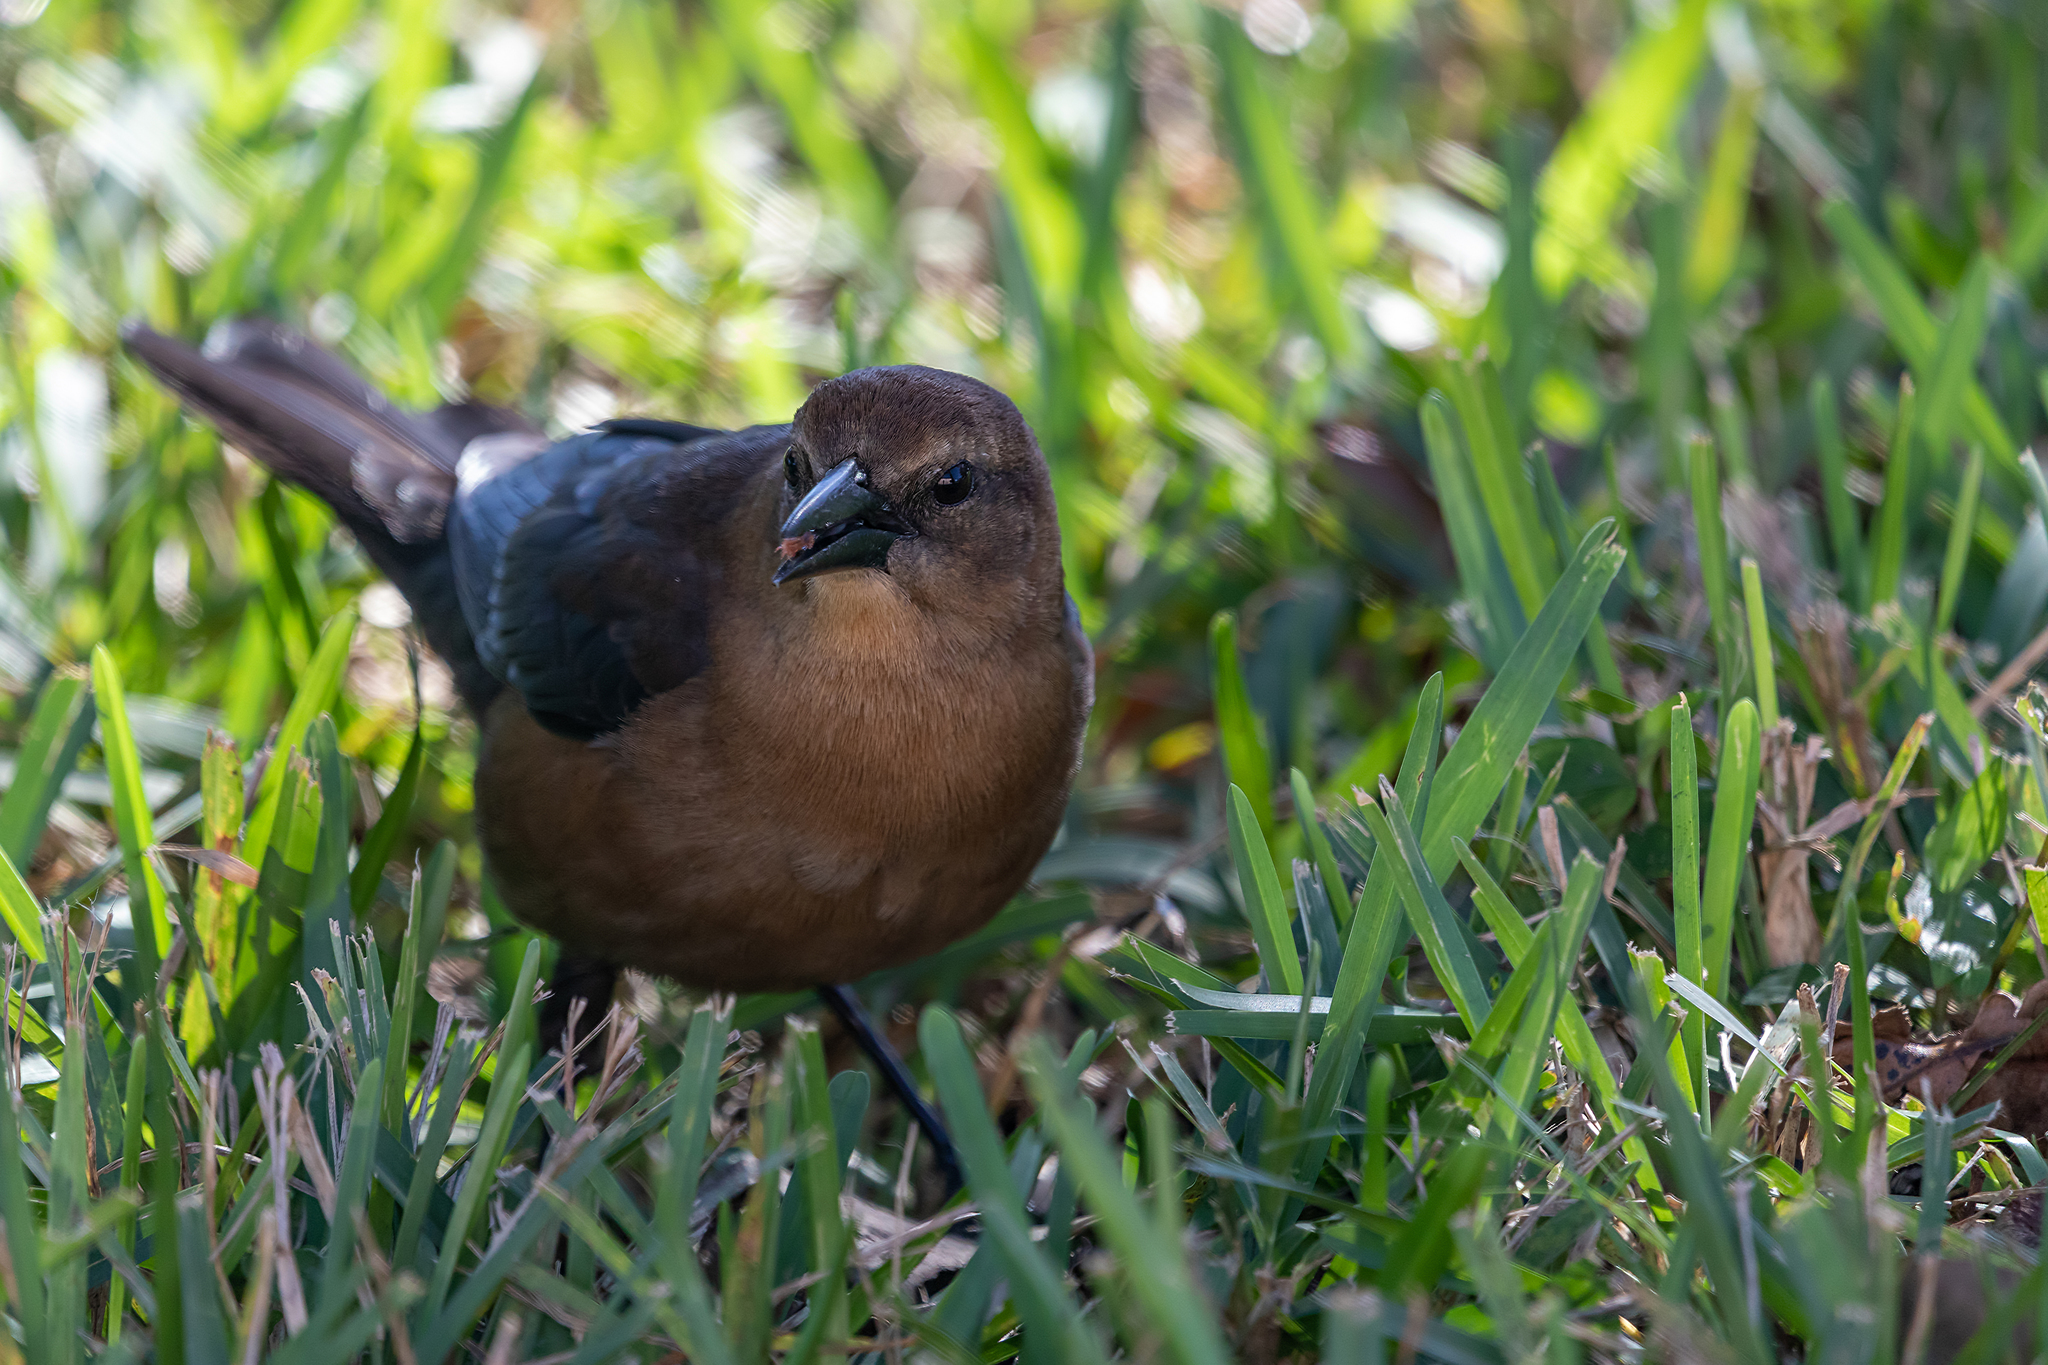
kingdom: Animalia
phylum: Chordata
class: Aves
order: Passeriformes
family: Icteridae
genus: Quiscalus
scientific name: Quiscalus major
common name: Boat-tailed grackle
